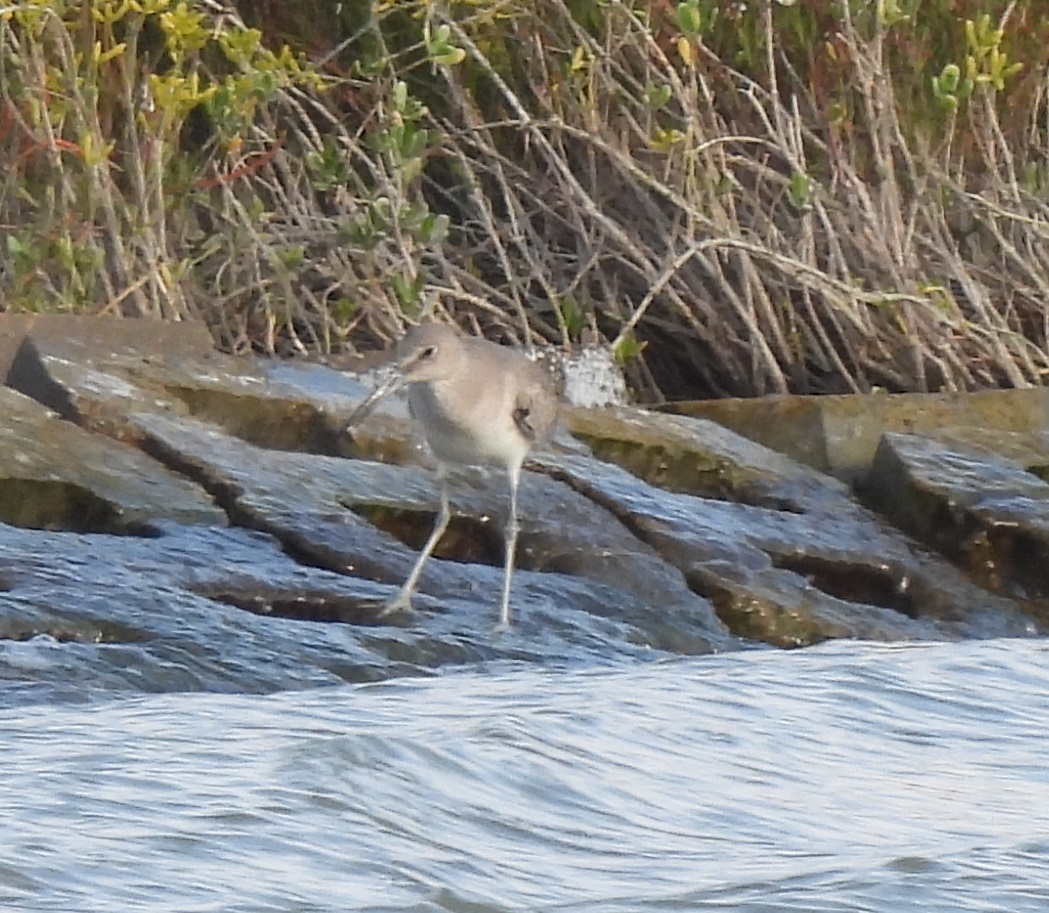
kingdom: Animalia
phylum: Chordata
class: Aves
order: Charadriiformes
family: Scolopacidae
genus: Tringa
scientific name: Tringa semipalmata
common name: Willet
